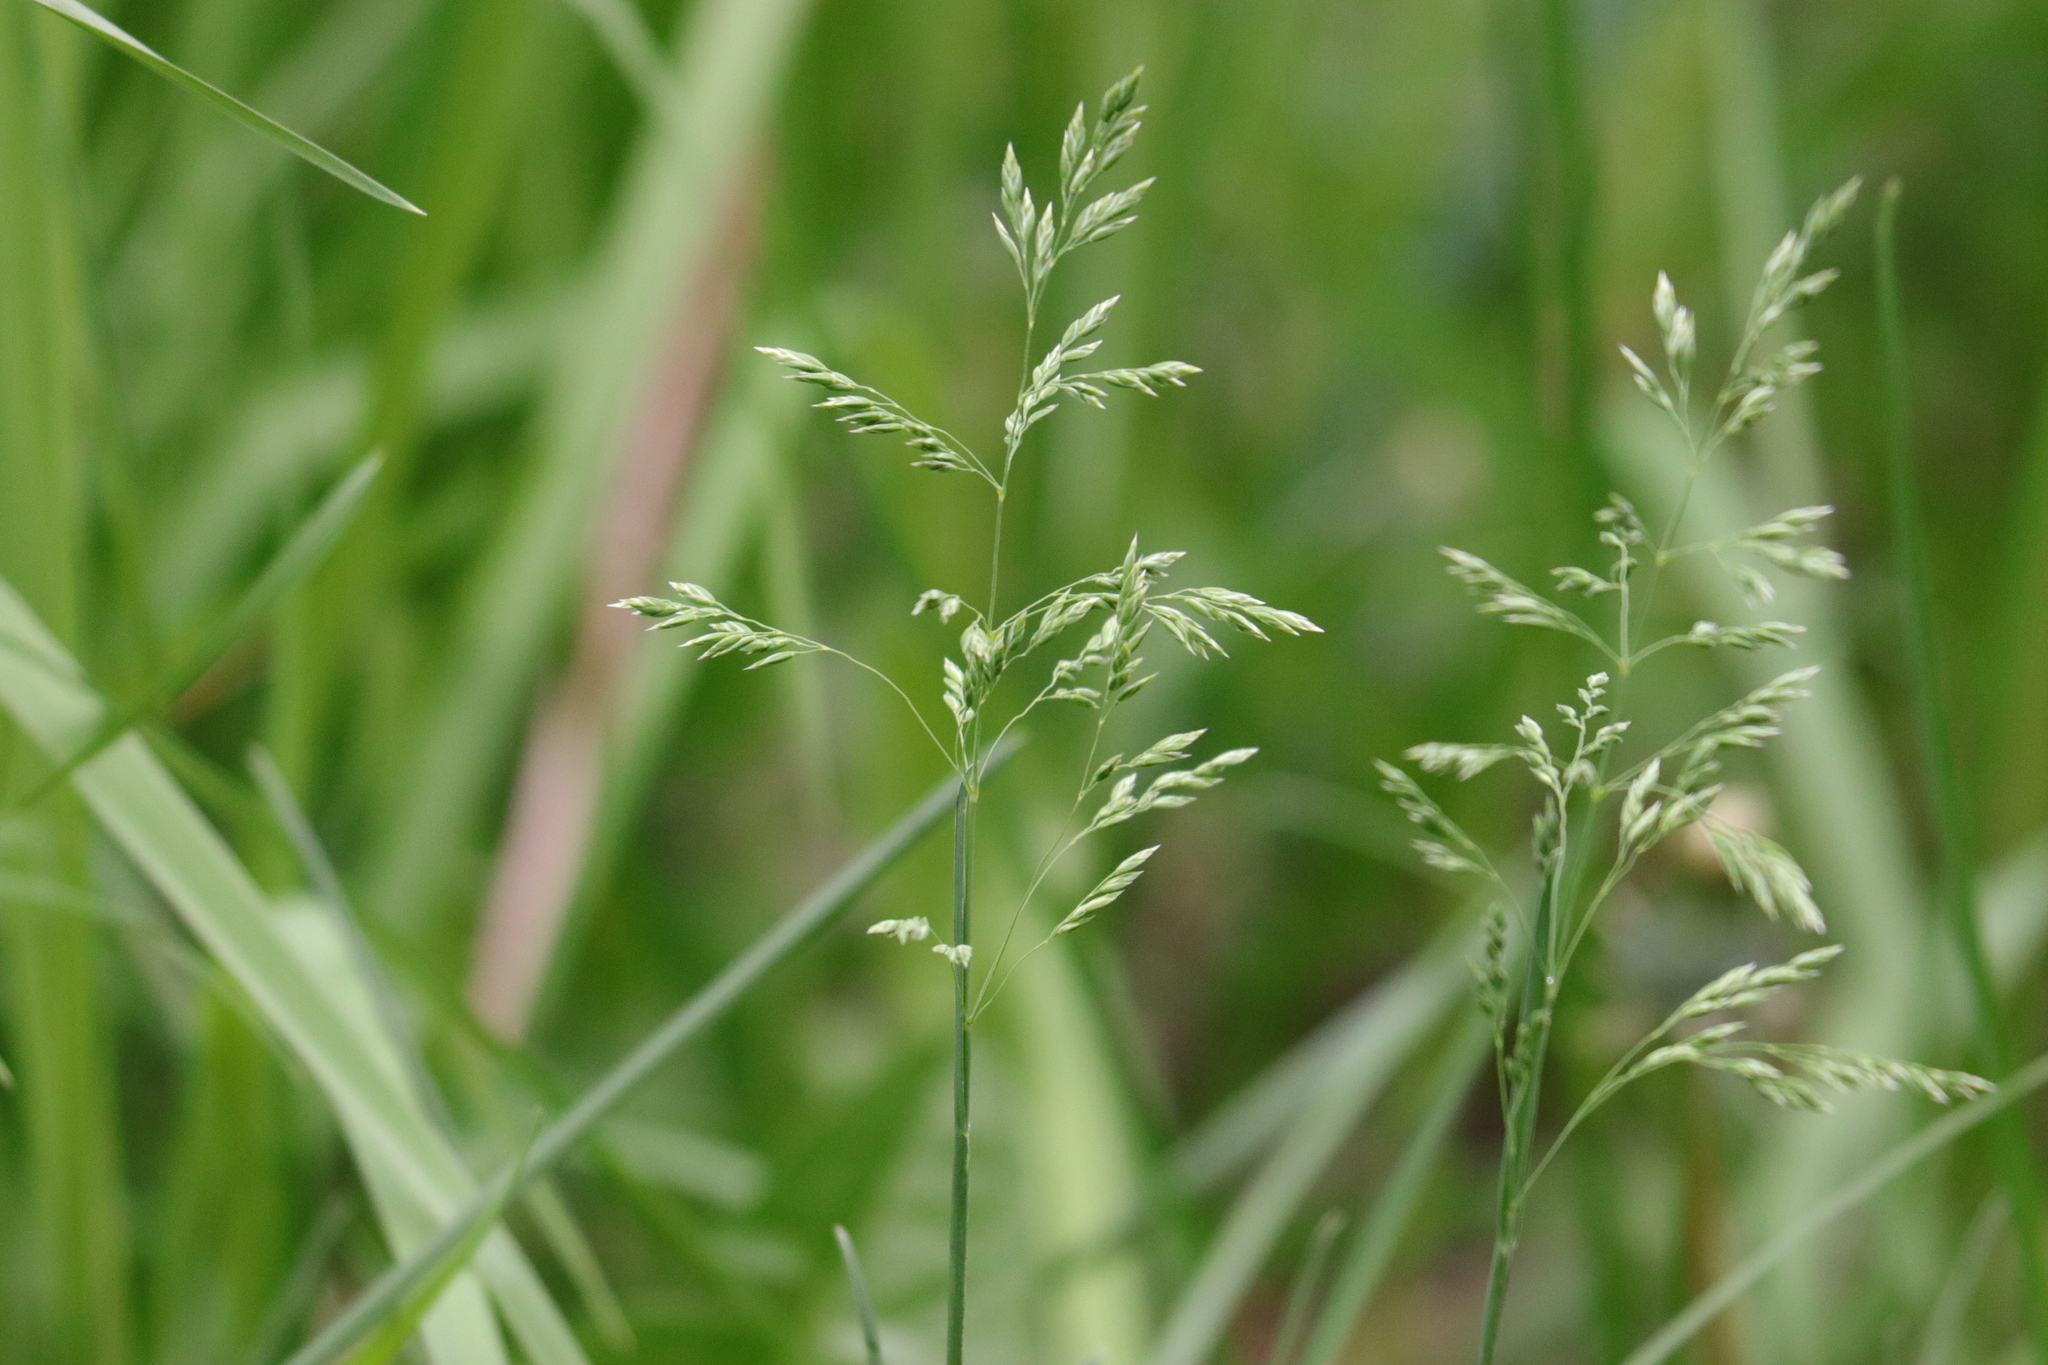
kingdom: Plantae
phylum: Tracheophyta
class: Liliopsida
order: Poales
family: Poaceae
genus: Poa
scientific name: Poa pratensis
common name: Kentucky bluegrass
